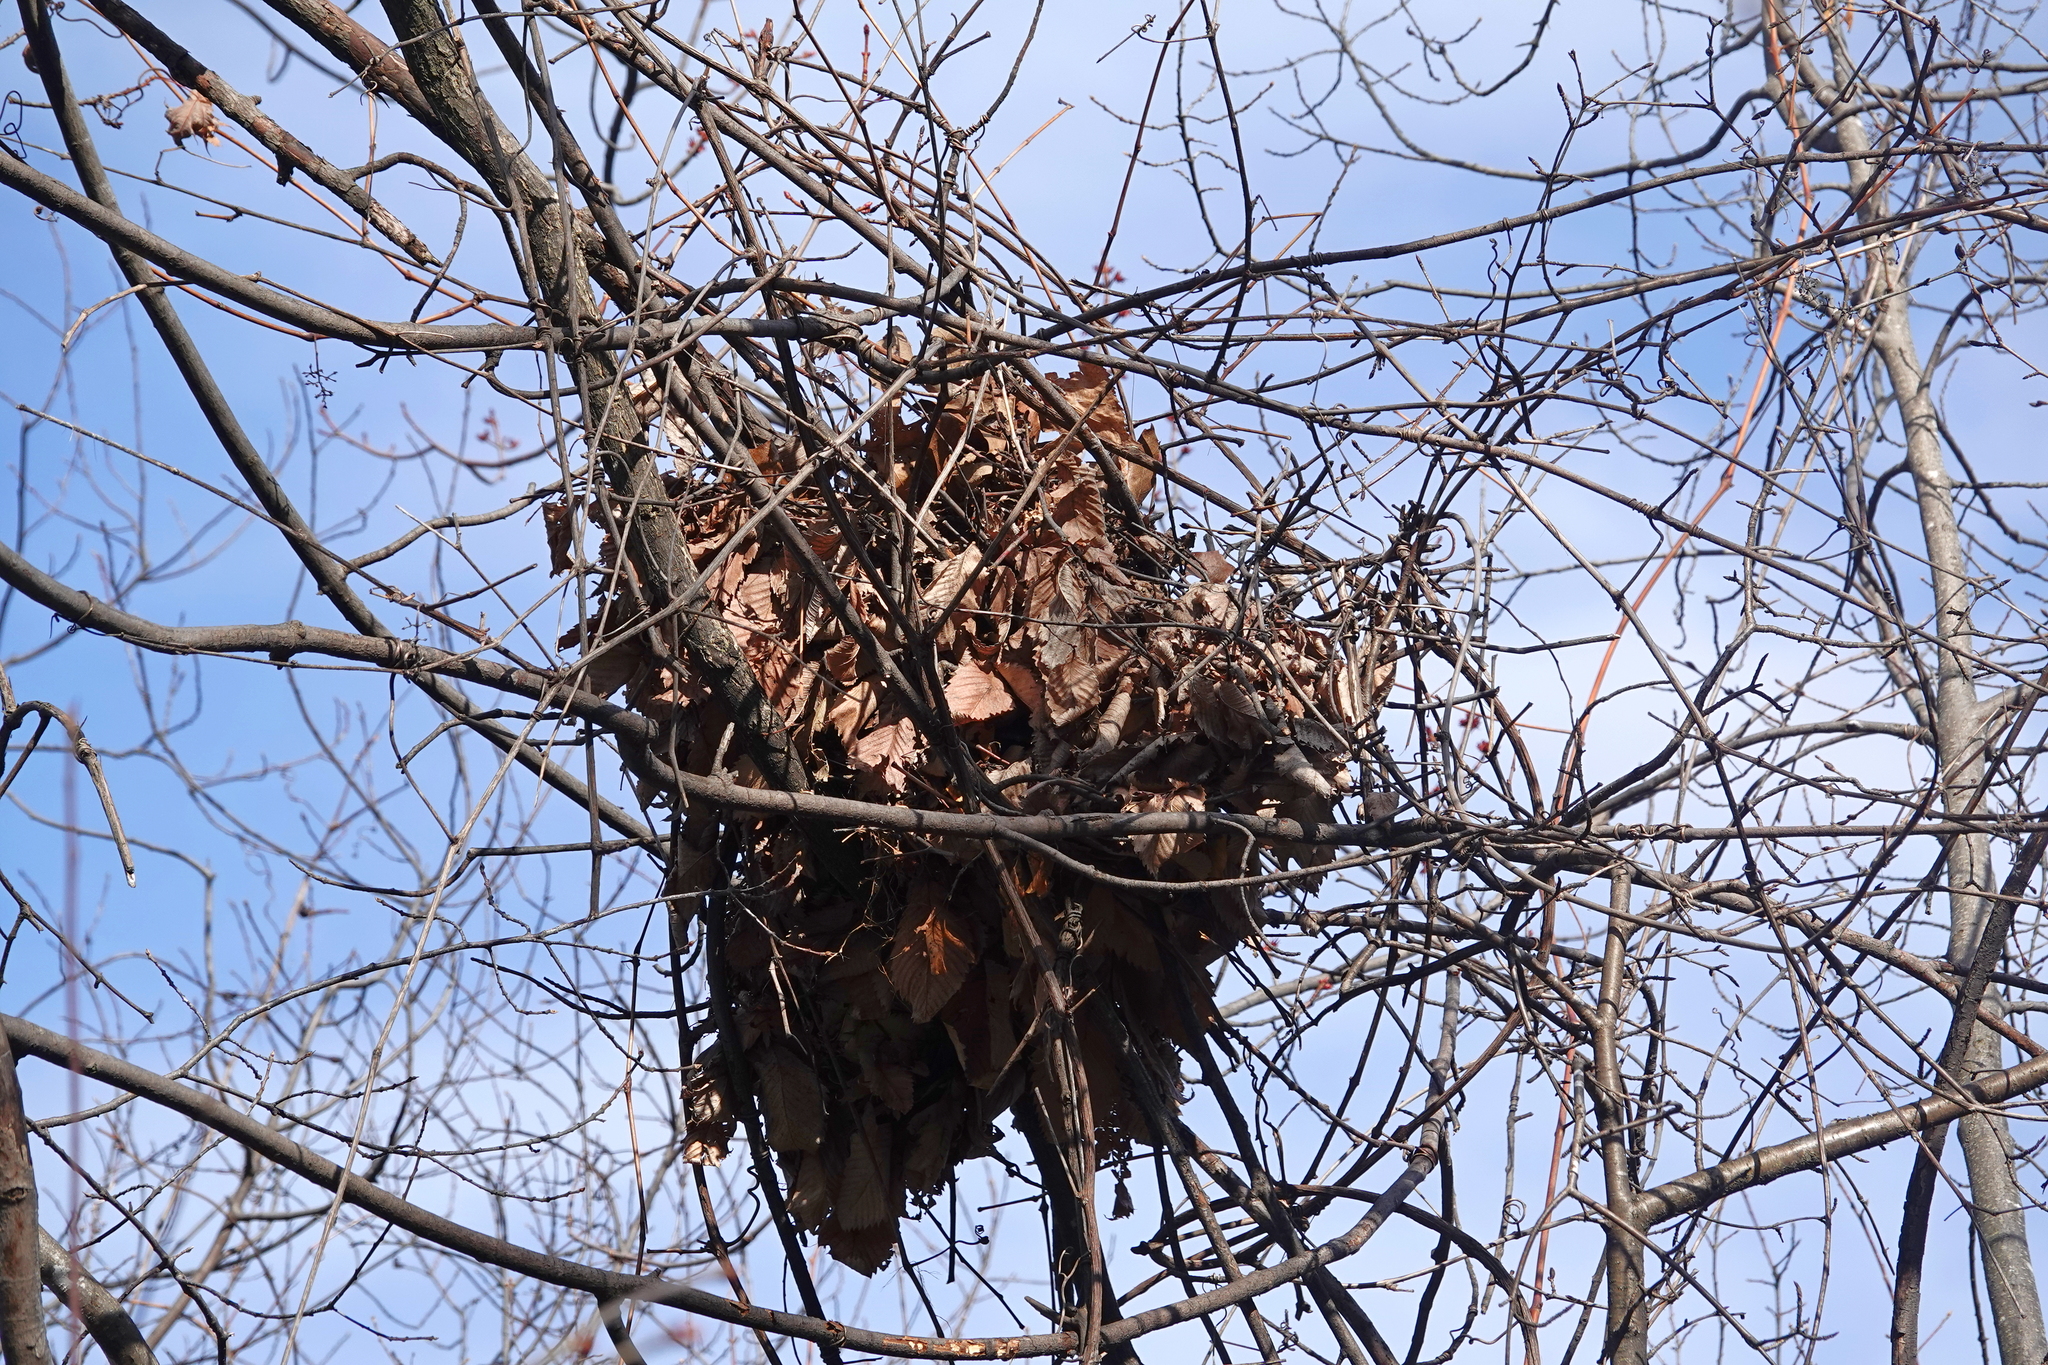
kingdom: Animalia
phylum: Chordata
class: Mammalia
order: Rodentia
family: Sciuridae
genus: Sciurus
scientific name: Sciurus carolinensis
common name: Eastern gray squirrel
